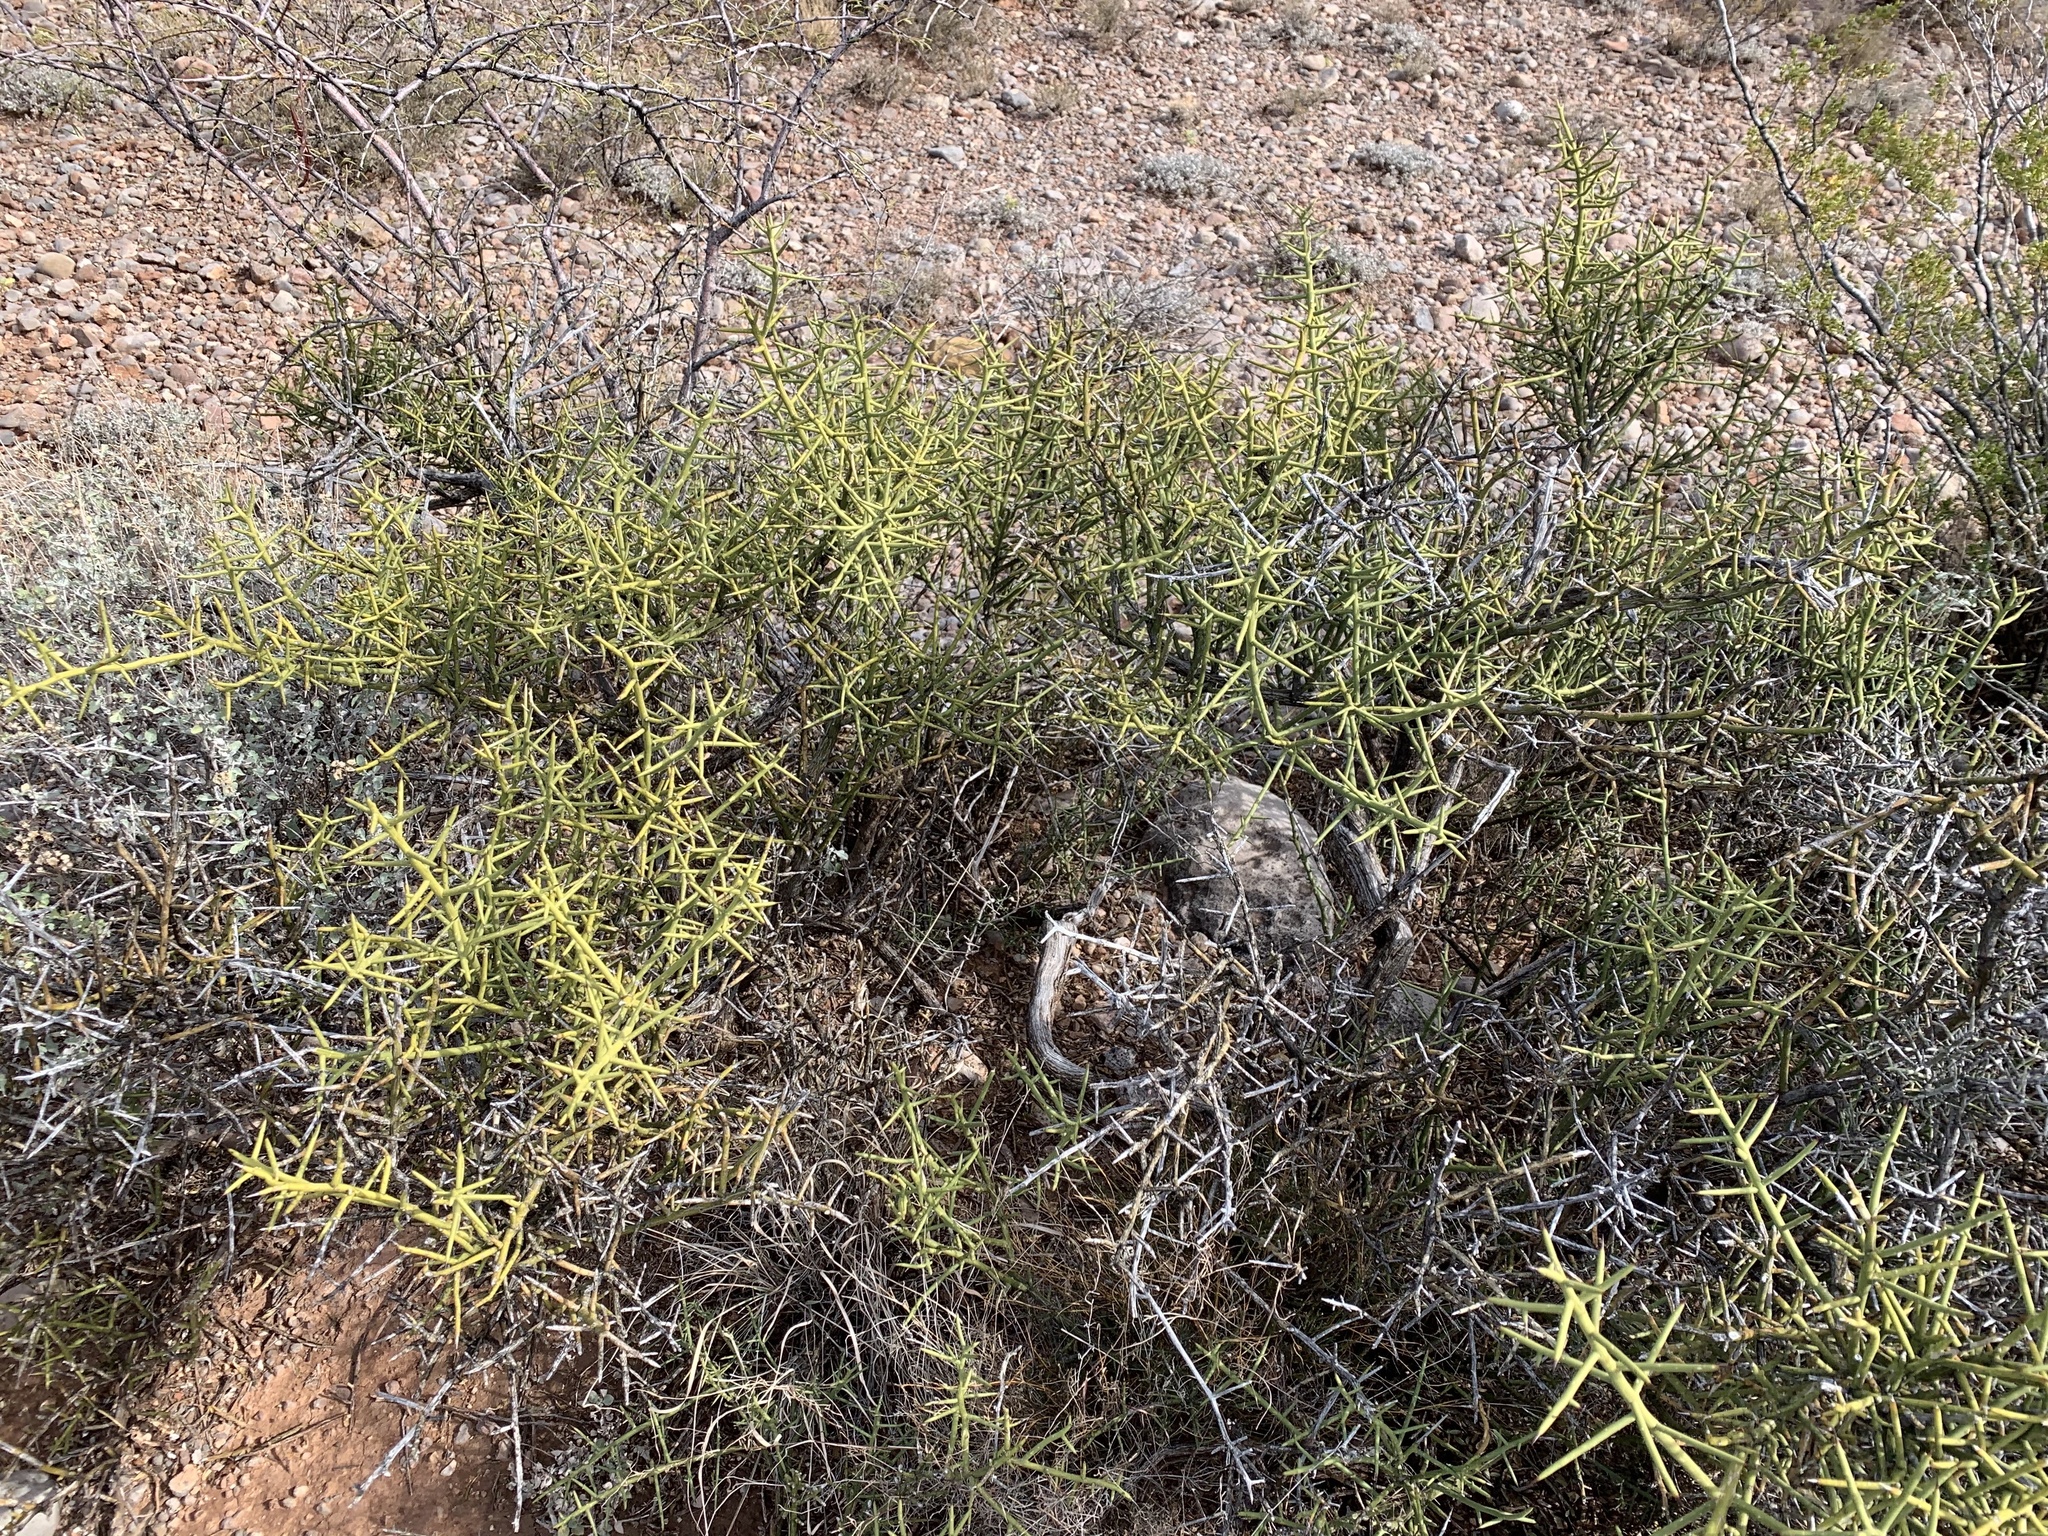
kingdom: Plantae
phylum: Tracheophyta
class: Magnoliopsida
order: Brassicales
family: Koeberliniaceae
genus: Koeberlinia
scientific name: Koeberlinia spinosa
